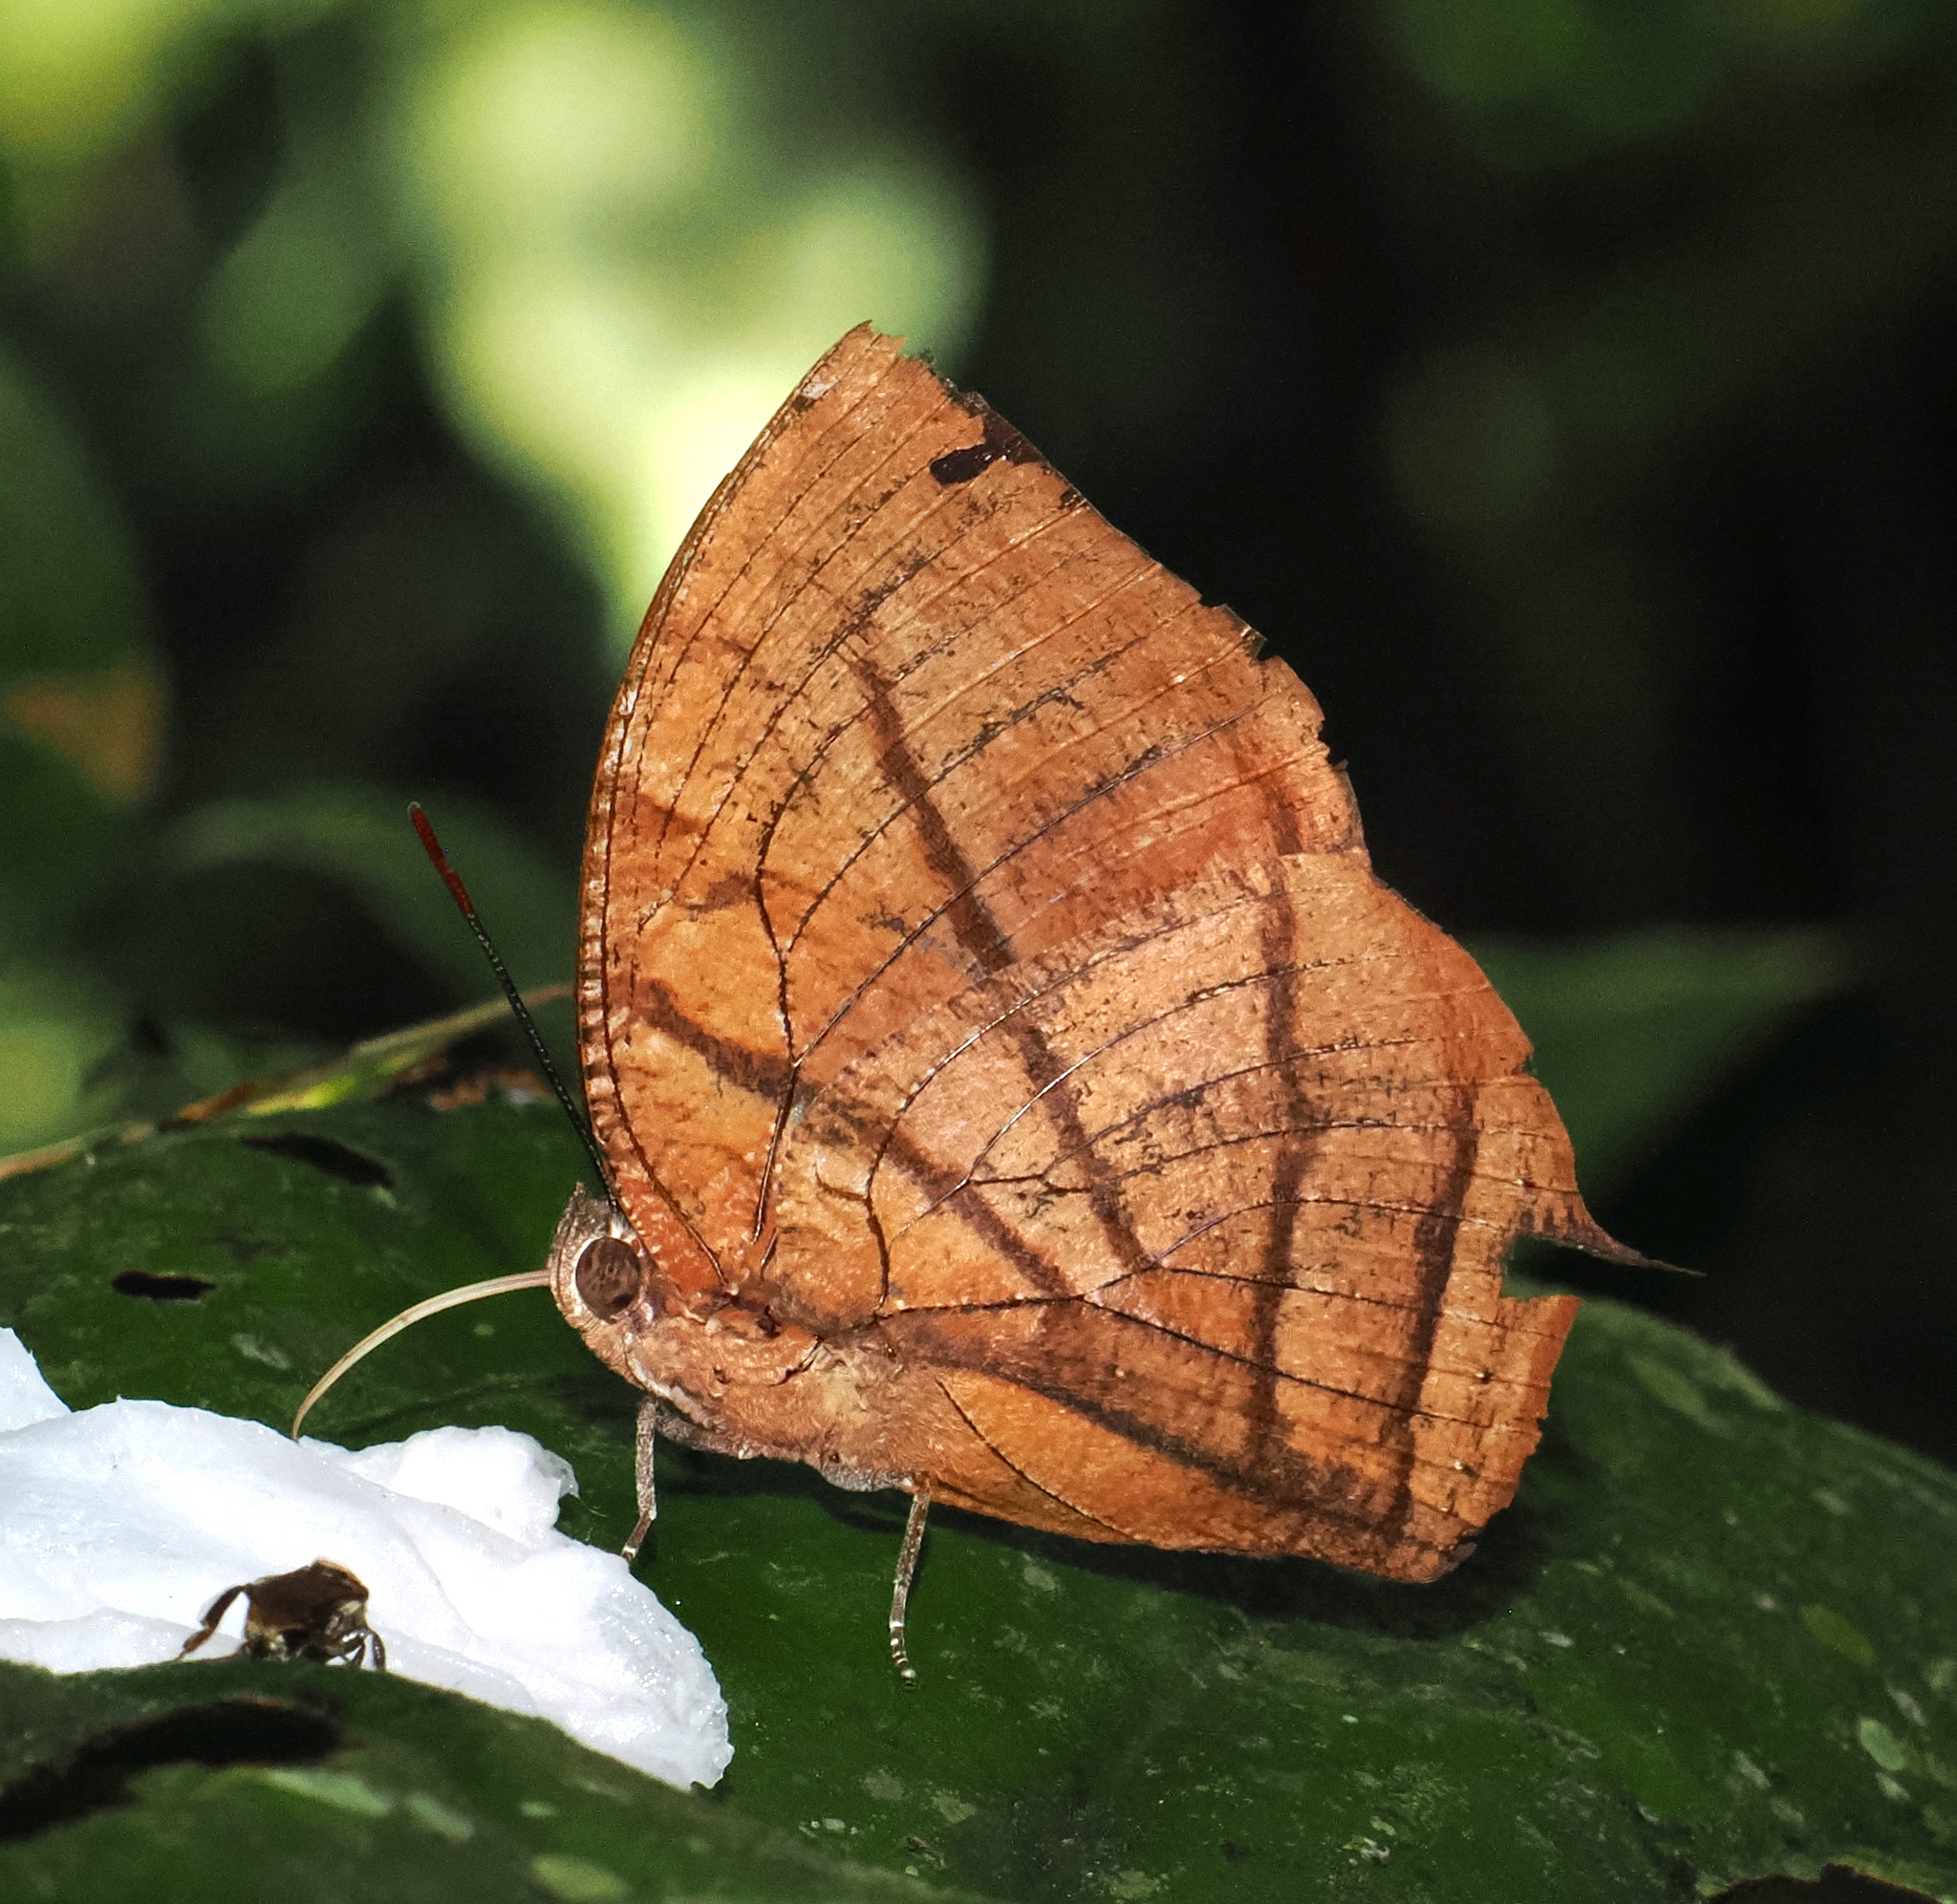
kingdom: Animalia
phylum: Arthropoda
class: Insecta
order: Lepidoptera
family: Nymphalidae
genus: Anaea
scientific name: Anaea philumena
